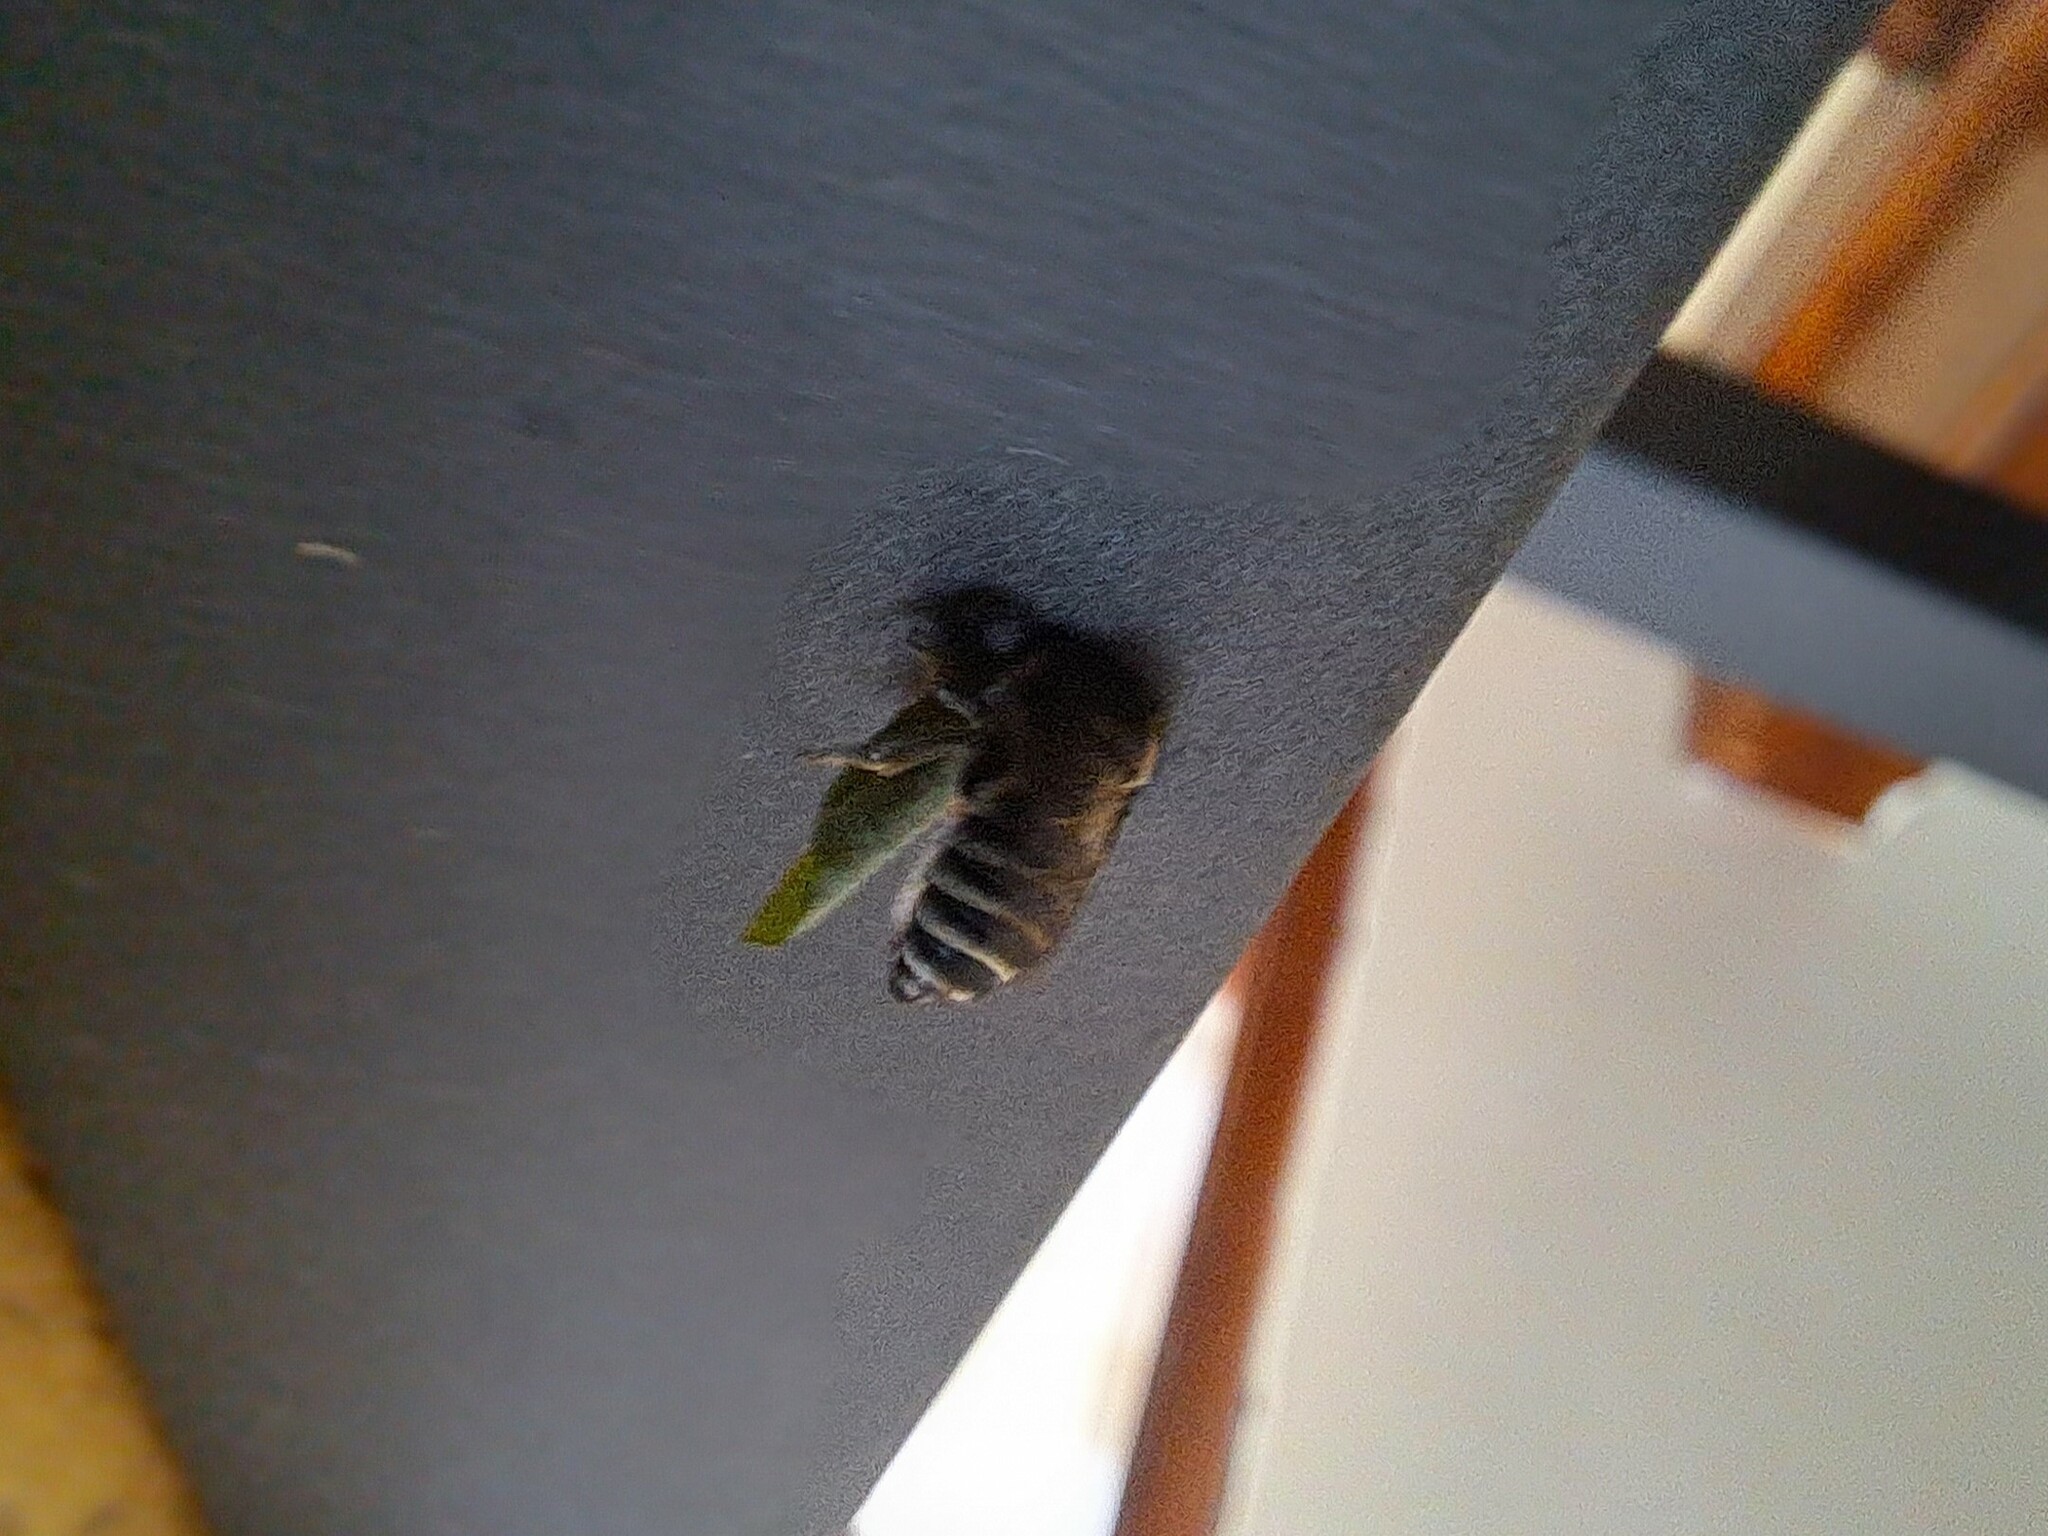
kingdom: Animalia
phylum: Arthropoda
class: Insecta
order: Hymenoptera
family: Megachilidae
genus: Megachile
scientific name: Megachile pusilla
